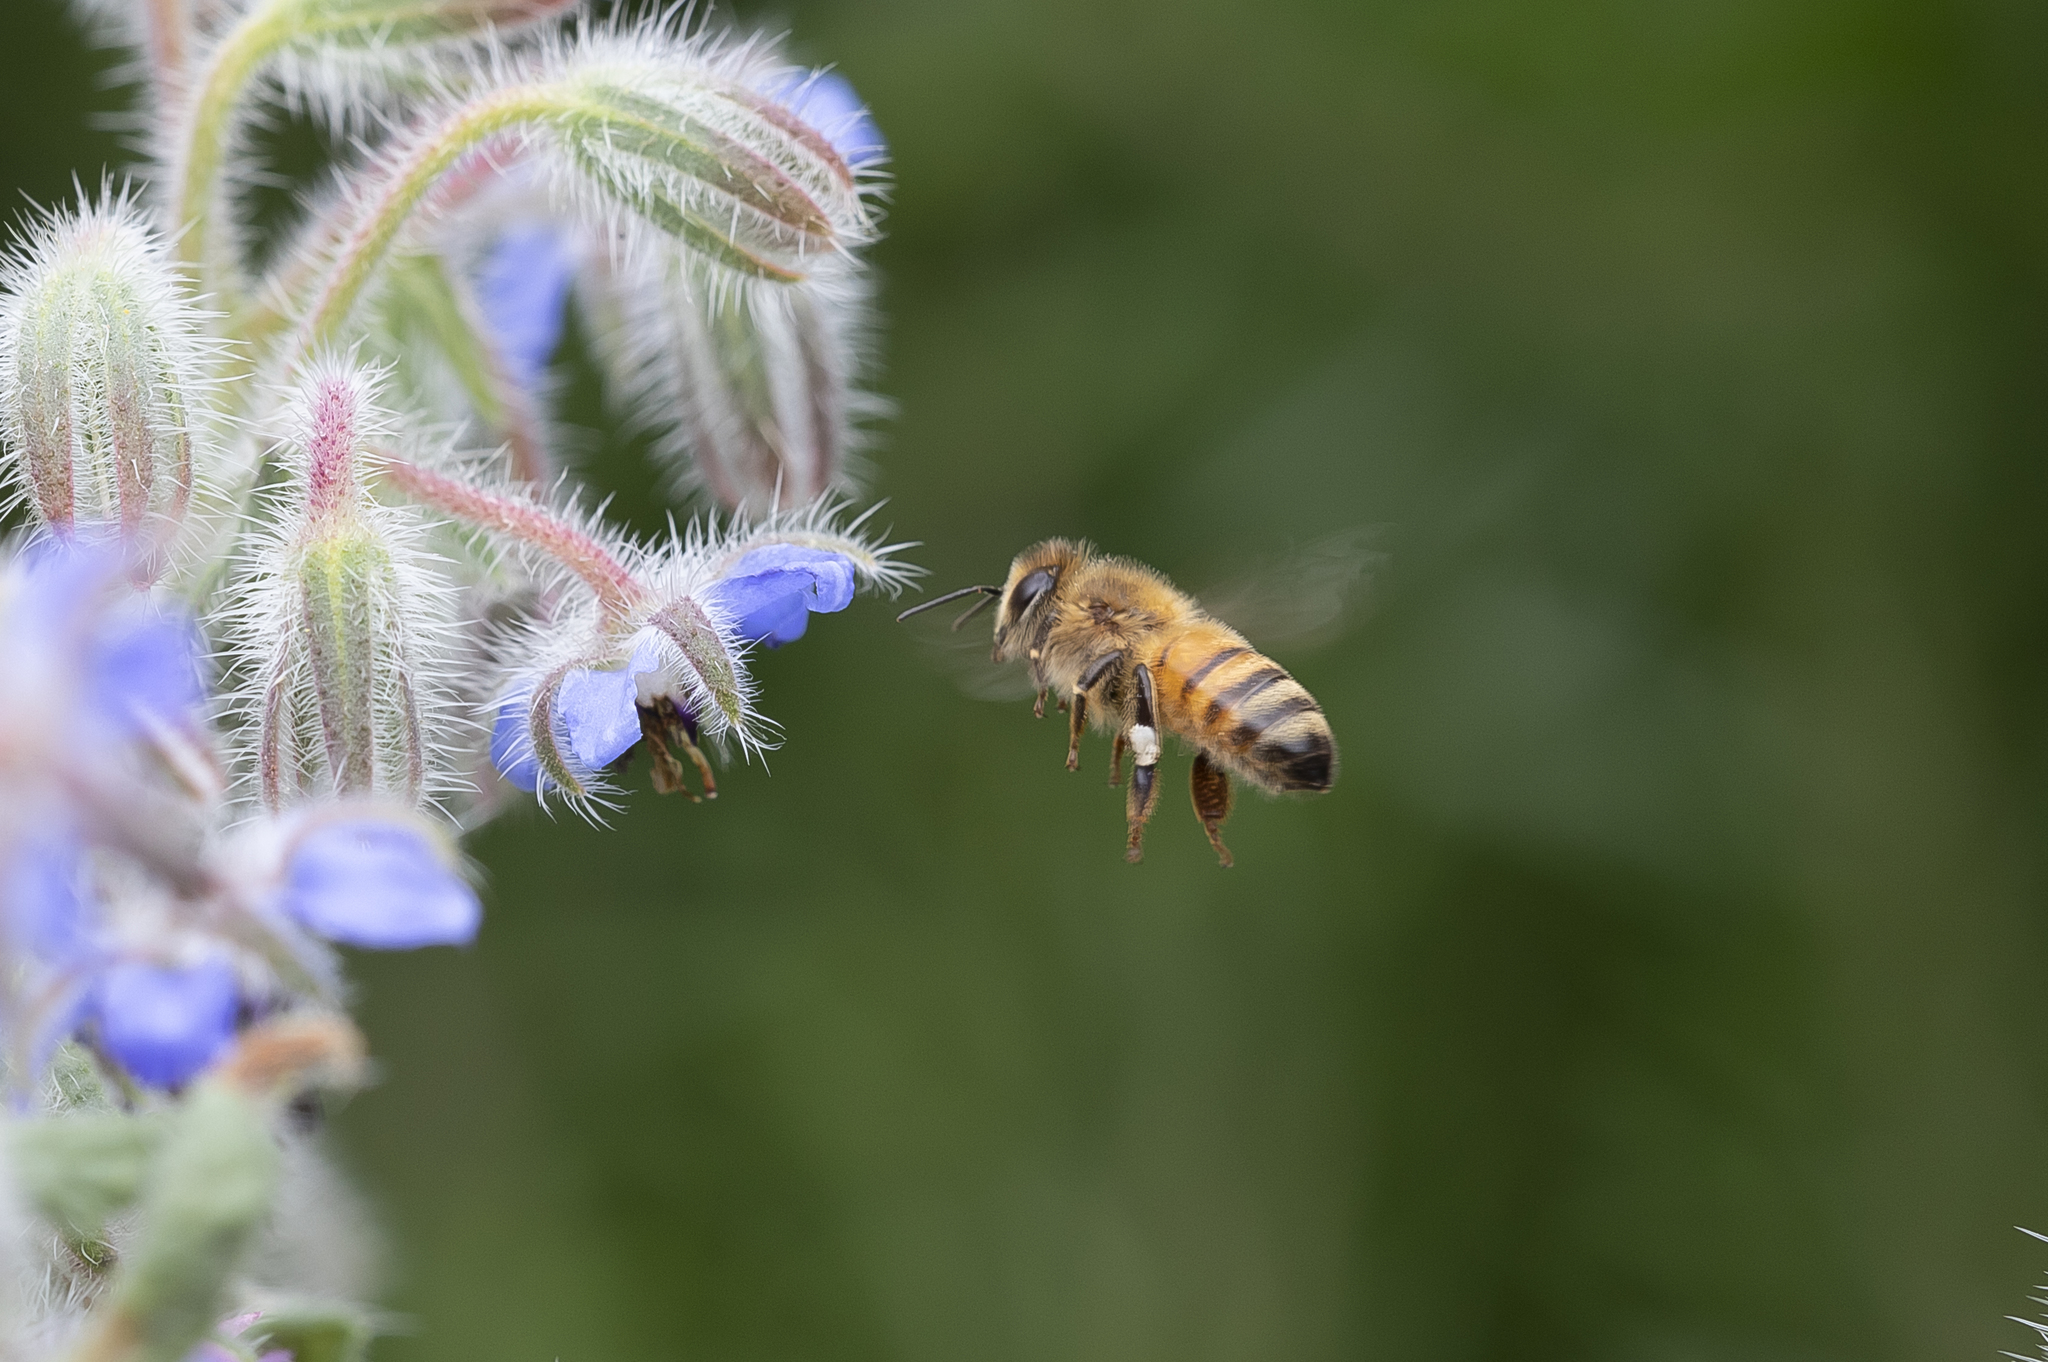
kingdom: Animalia
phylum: Arthropoda
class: Insecta
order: Hymenoptera
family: Apidae
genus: Apis
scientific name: Apis mellifera
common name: Honey bee
